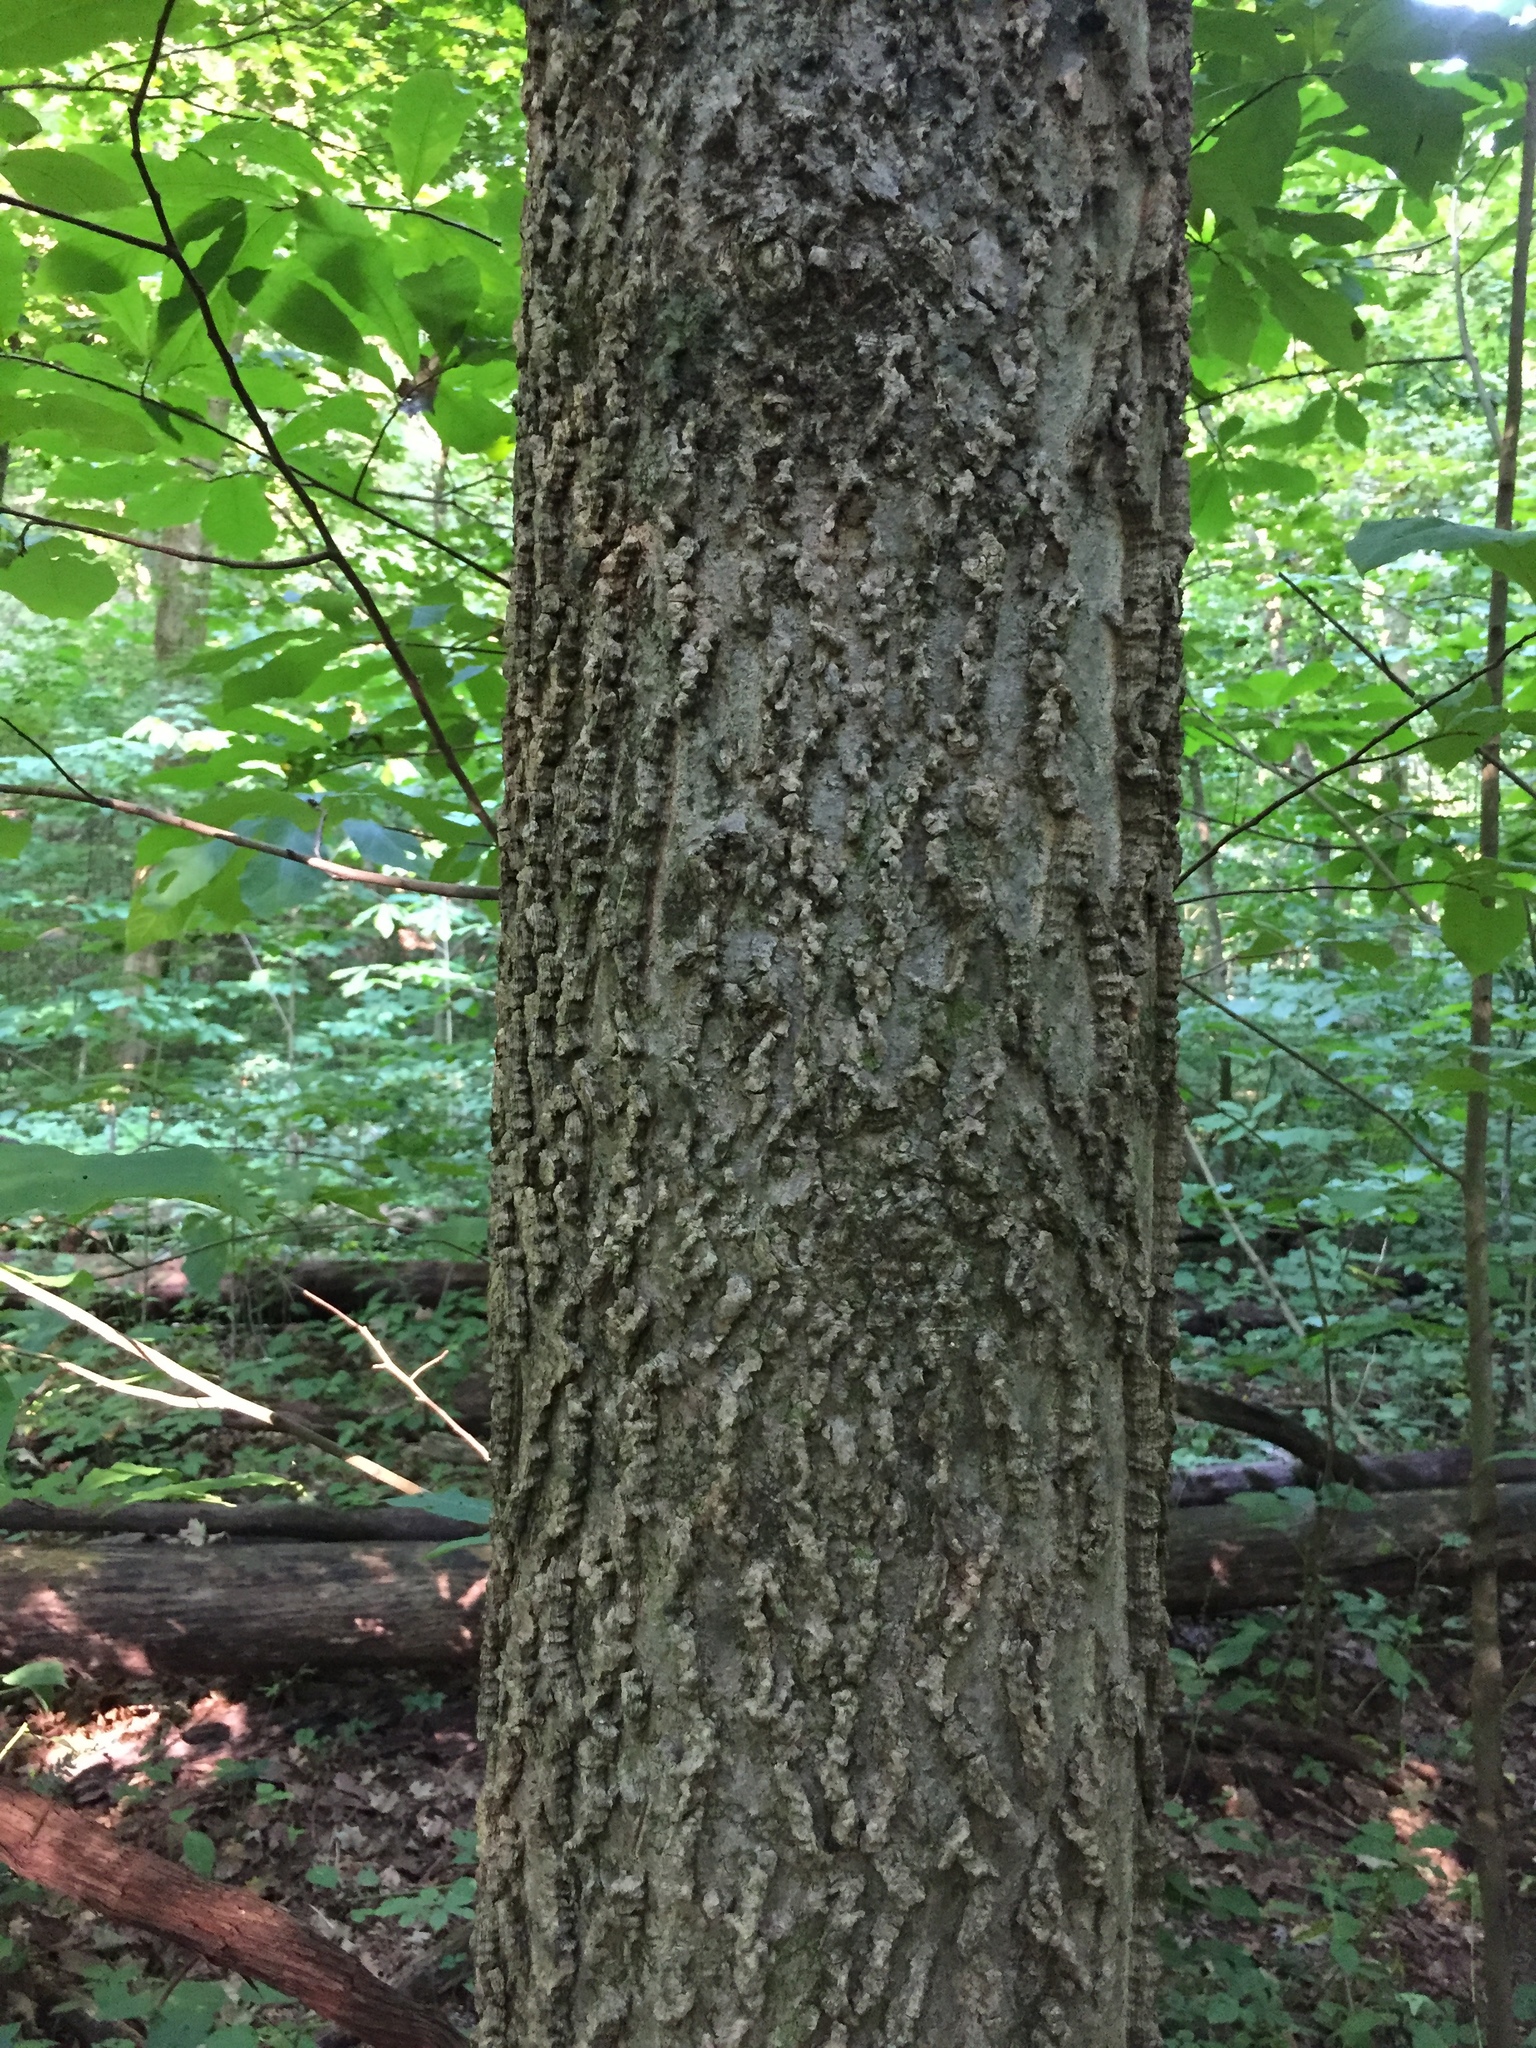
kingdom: Plantae
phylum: Tracheophyta
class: Magnoliopsida
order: Rosales
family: Cannabaceae
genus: Celtis
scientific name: Celtis occidentalis
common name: Common hackberry
